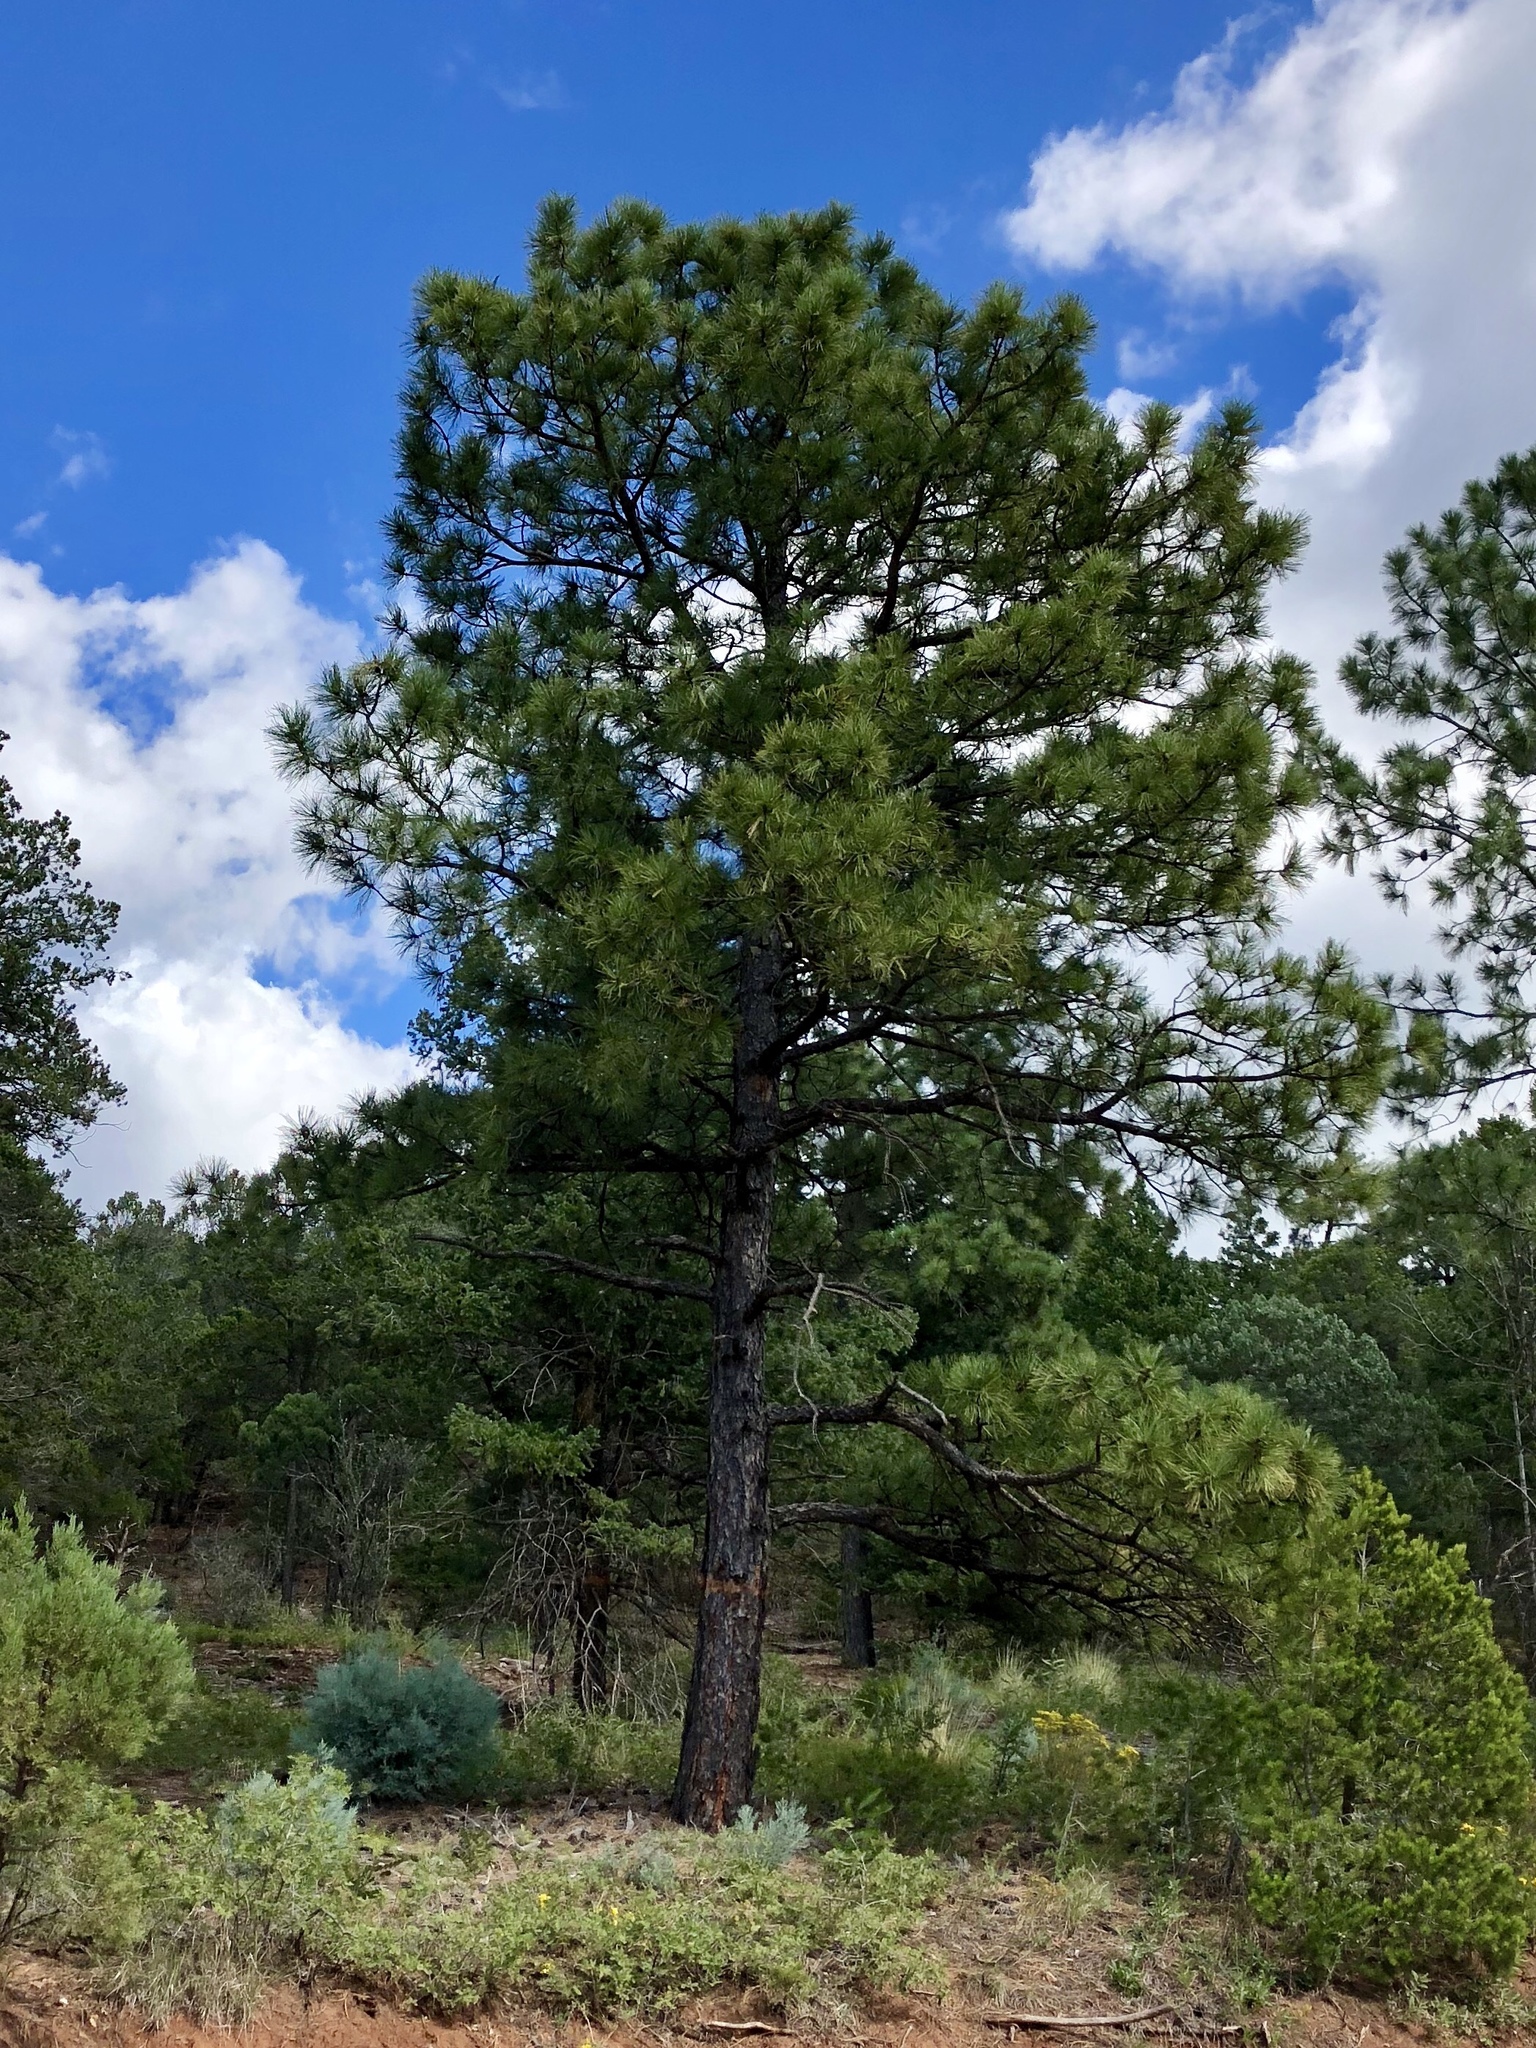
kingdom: Plantae
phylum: Tracheophyta
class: Pinopsida
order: Pinales
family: Pinaceae
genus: Pinus
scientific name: Pinus ponderosa
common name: Western yellow-pine
